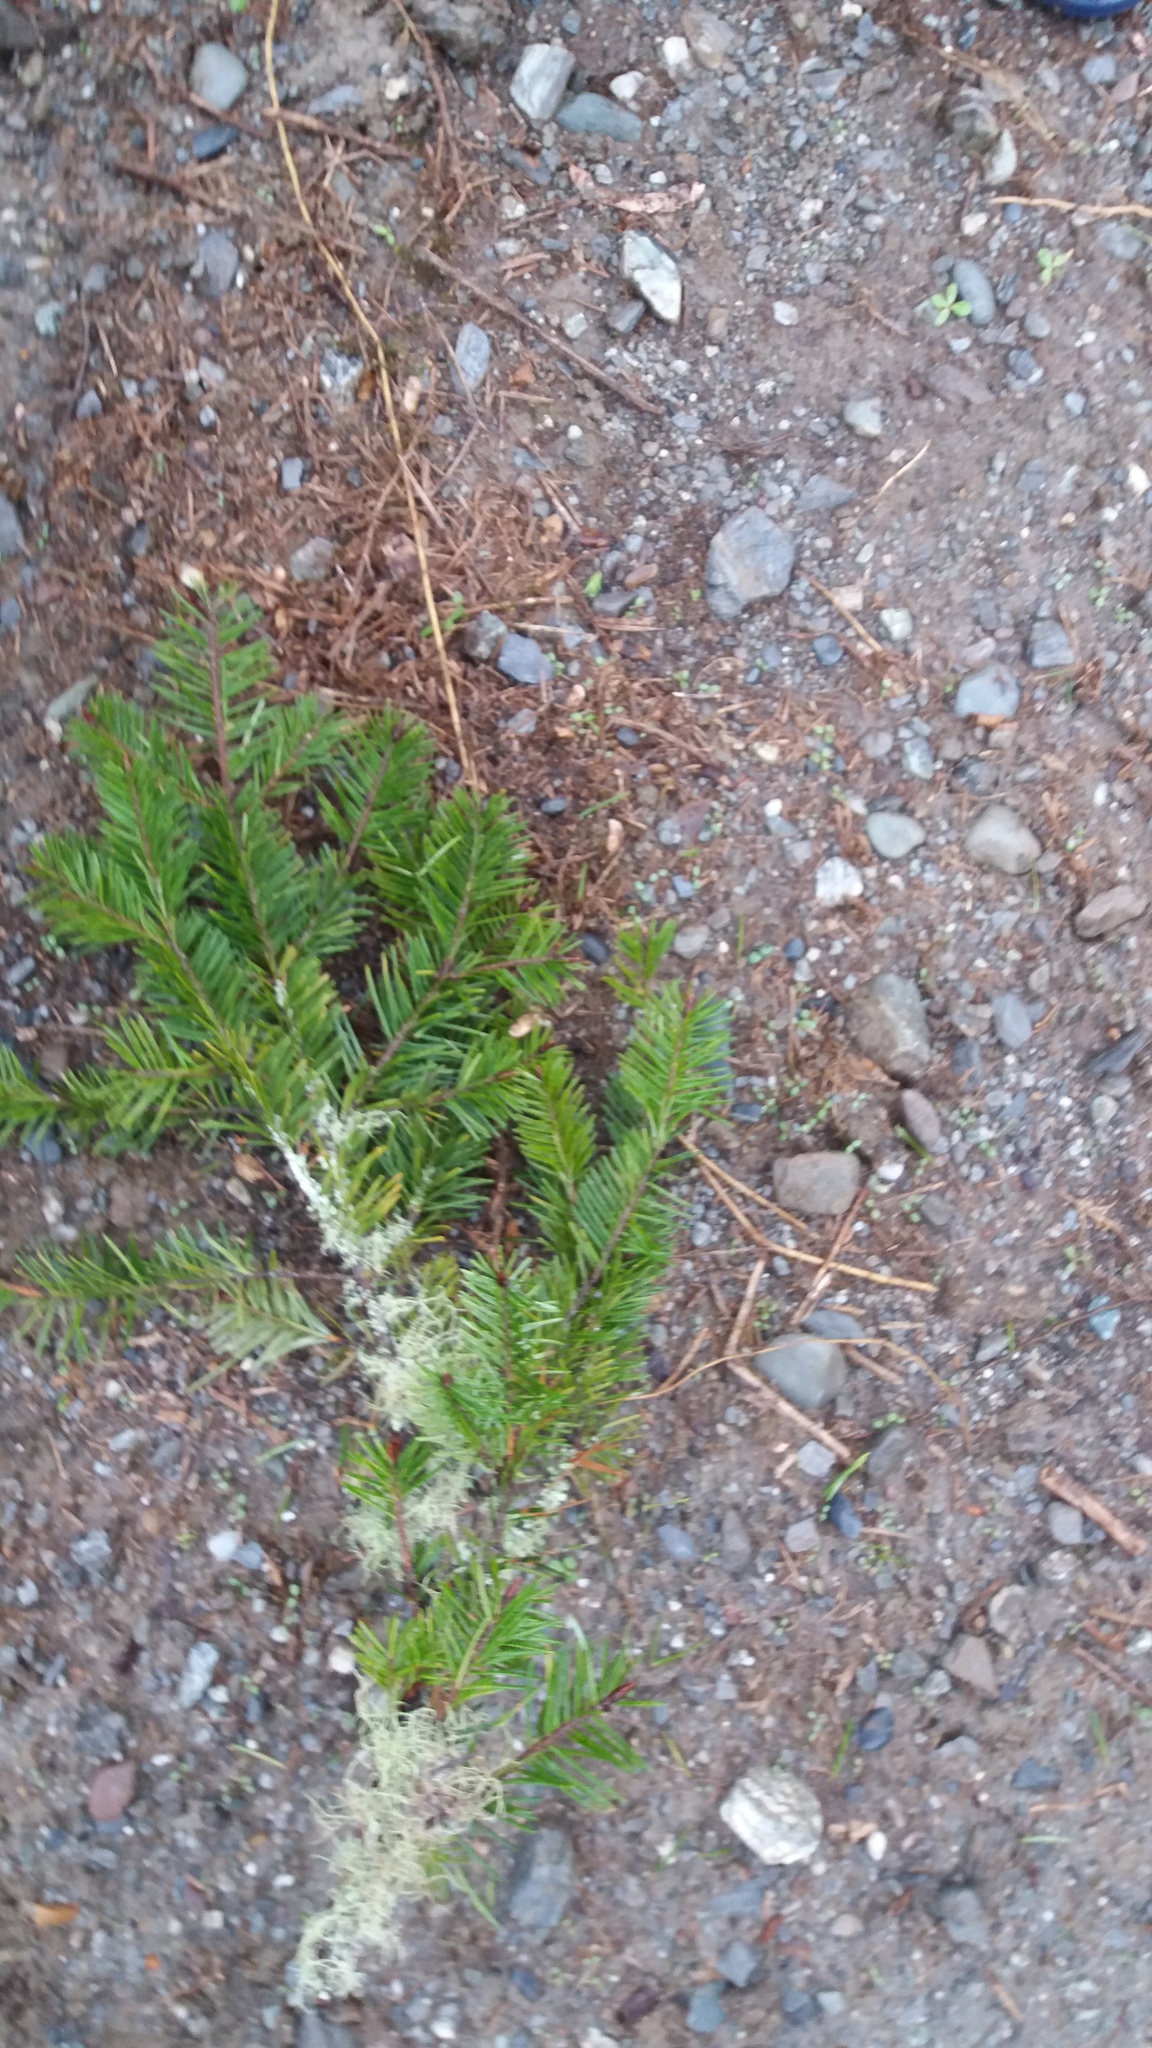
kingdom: Plantae
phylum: Tracheophyta
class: Pinopsida
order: Pinales
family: Pinaceae
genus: Pseudotsuga
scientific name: Pseudotsuga menziesii
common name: Douglas fir
